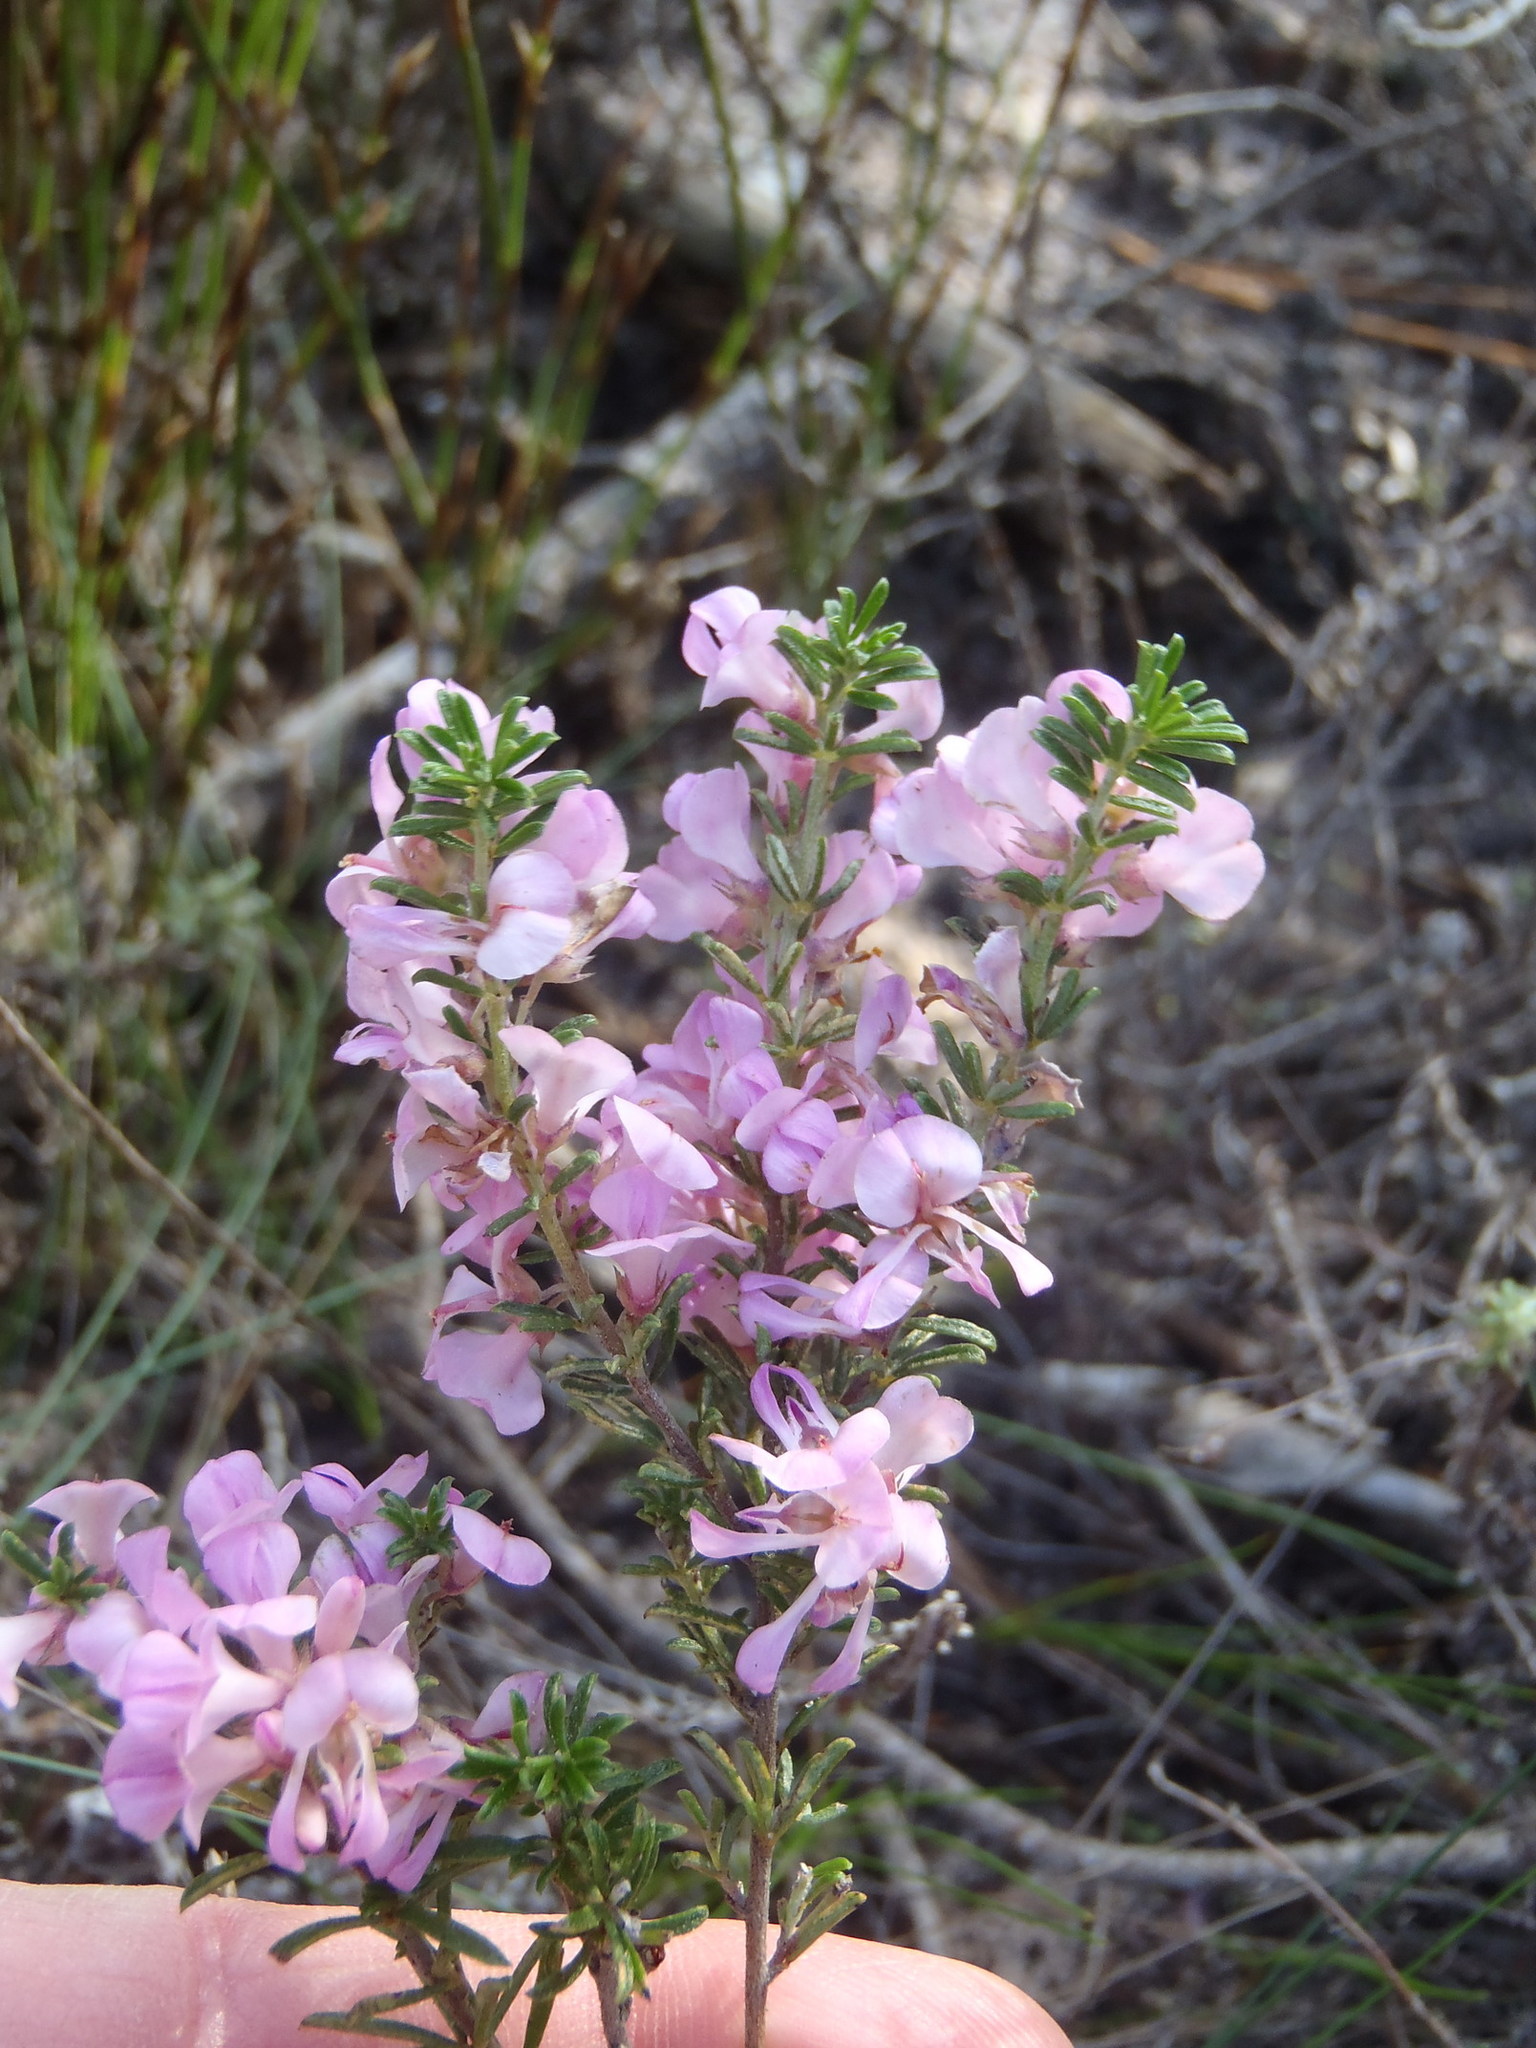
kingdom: Plantae
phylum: Tracheophyta
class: Magnoliopsida
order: Fabales
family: Fabaceae
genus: Indigofera
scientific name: Indigofera pappei
